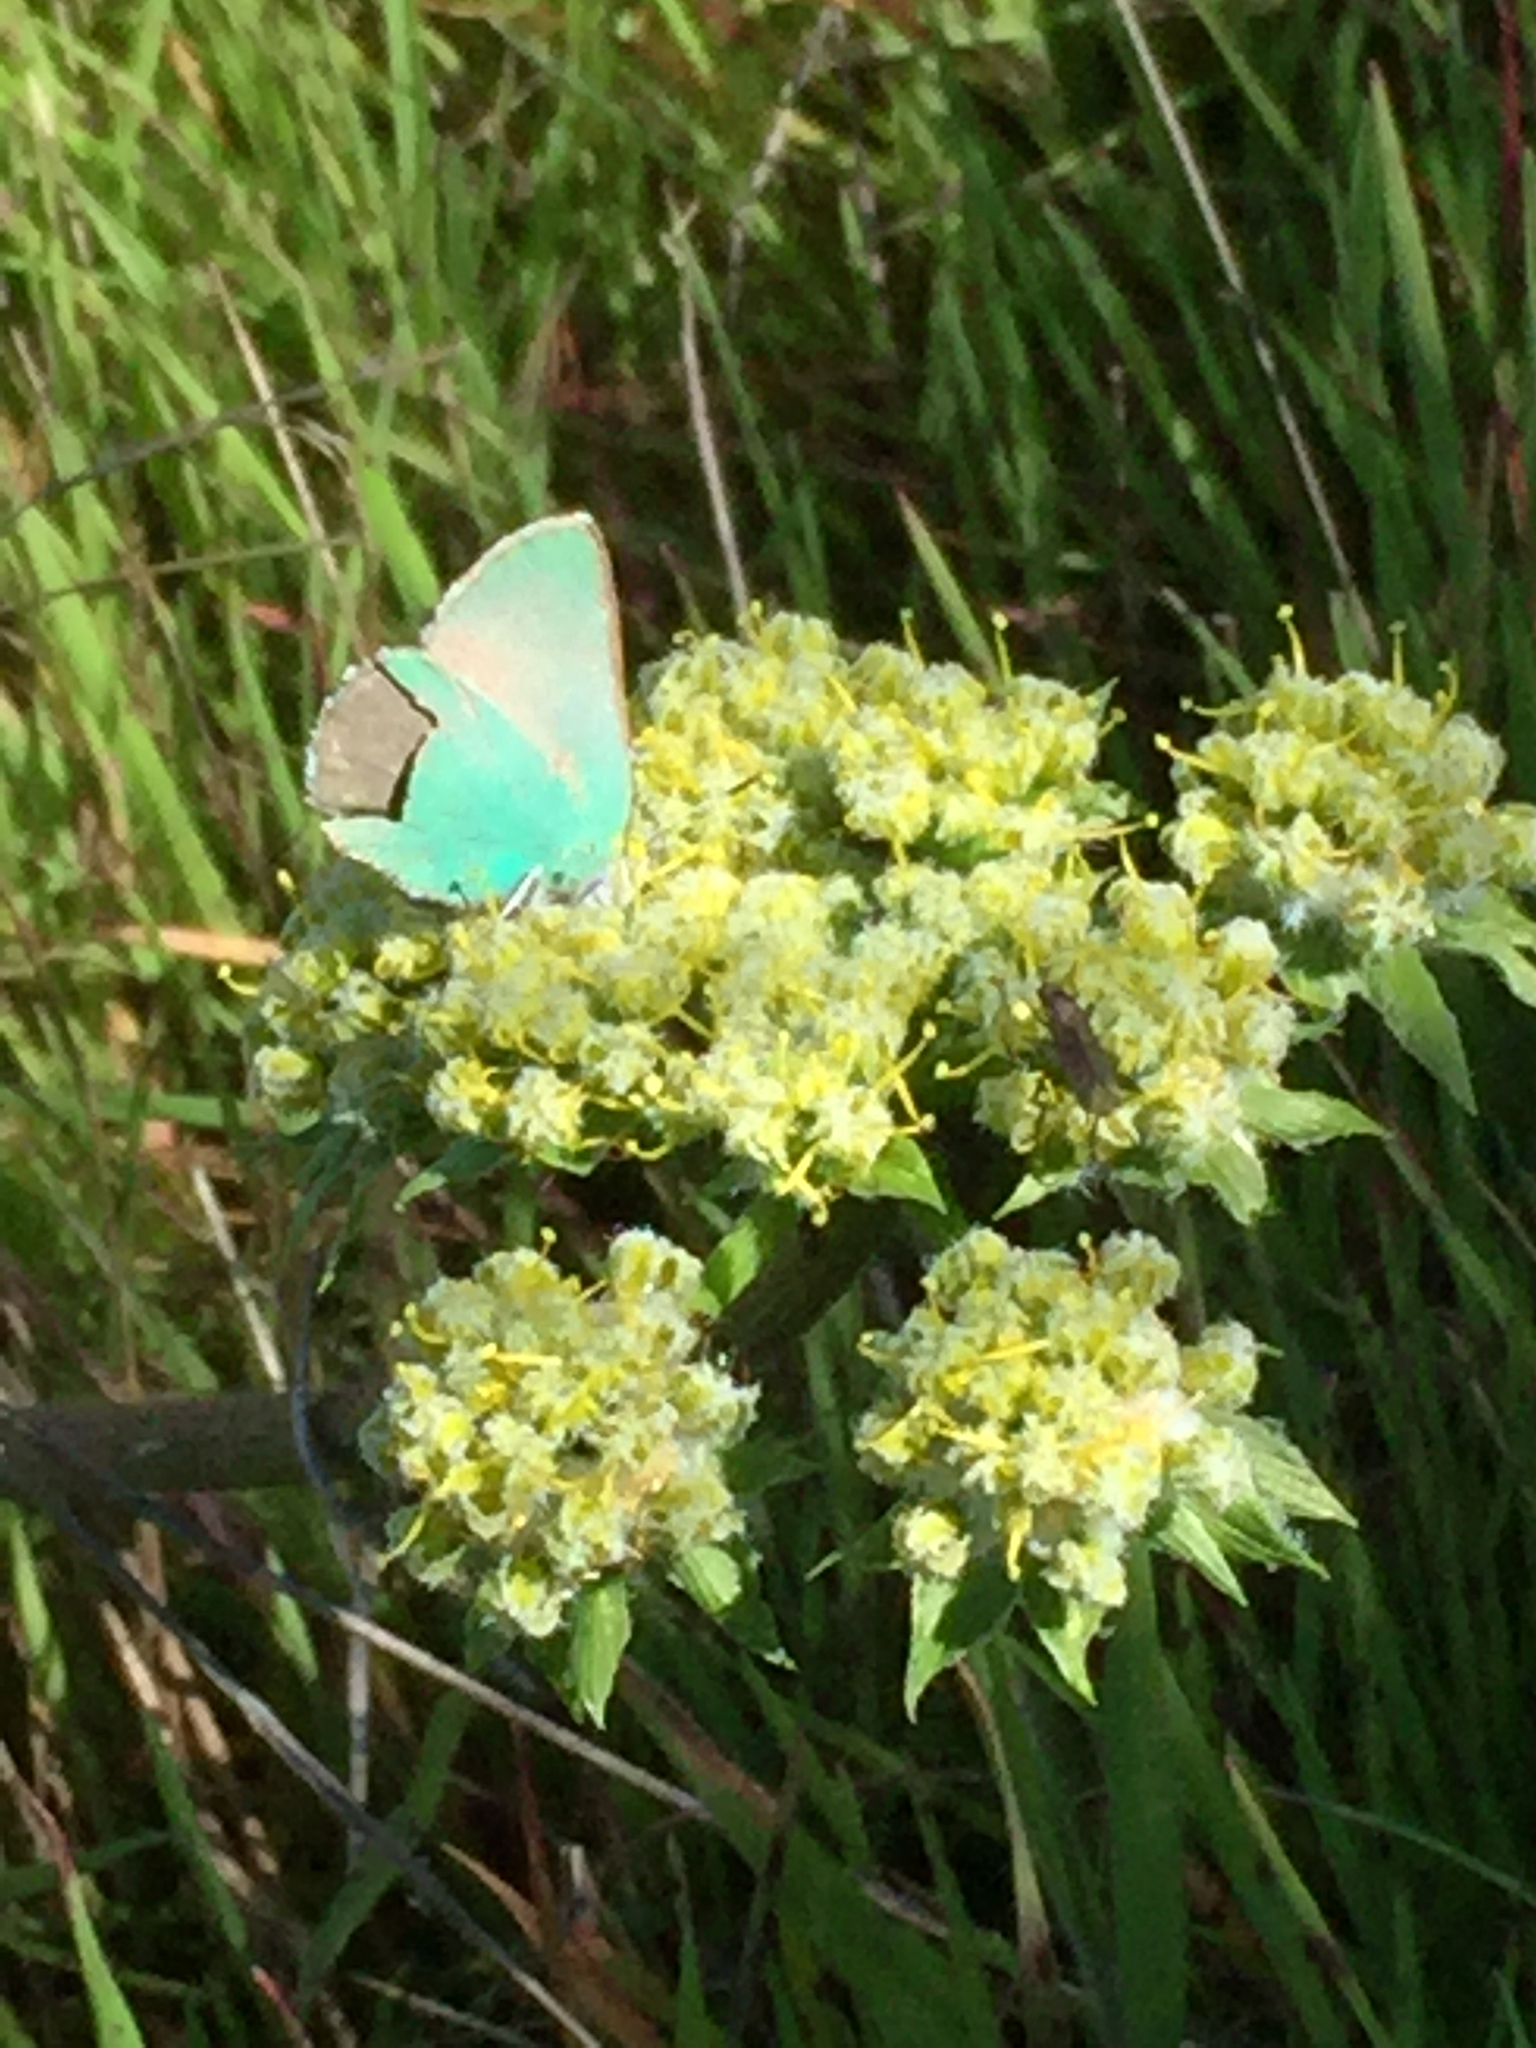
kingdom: Animalia
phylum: Arthropoda
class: Insecta
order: Lepidoptera
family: Lycaenidae
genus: Callophrys
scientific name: Callophrys viridis
